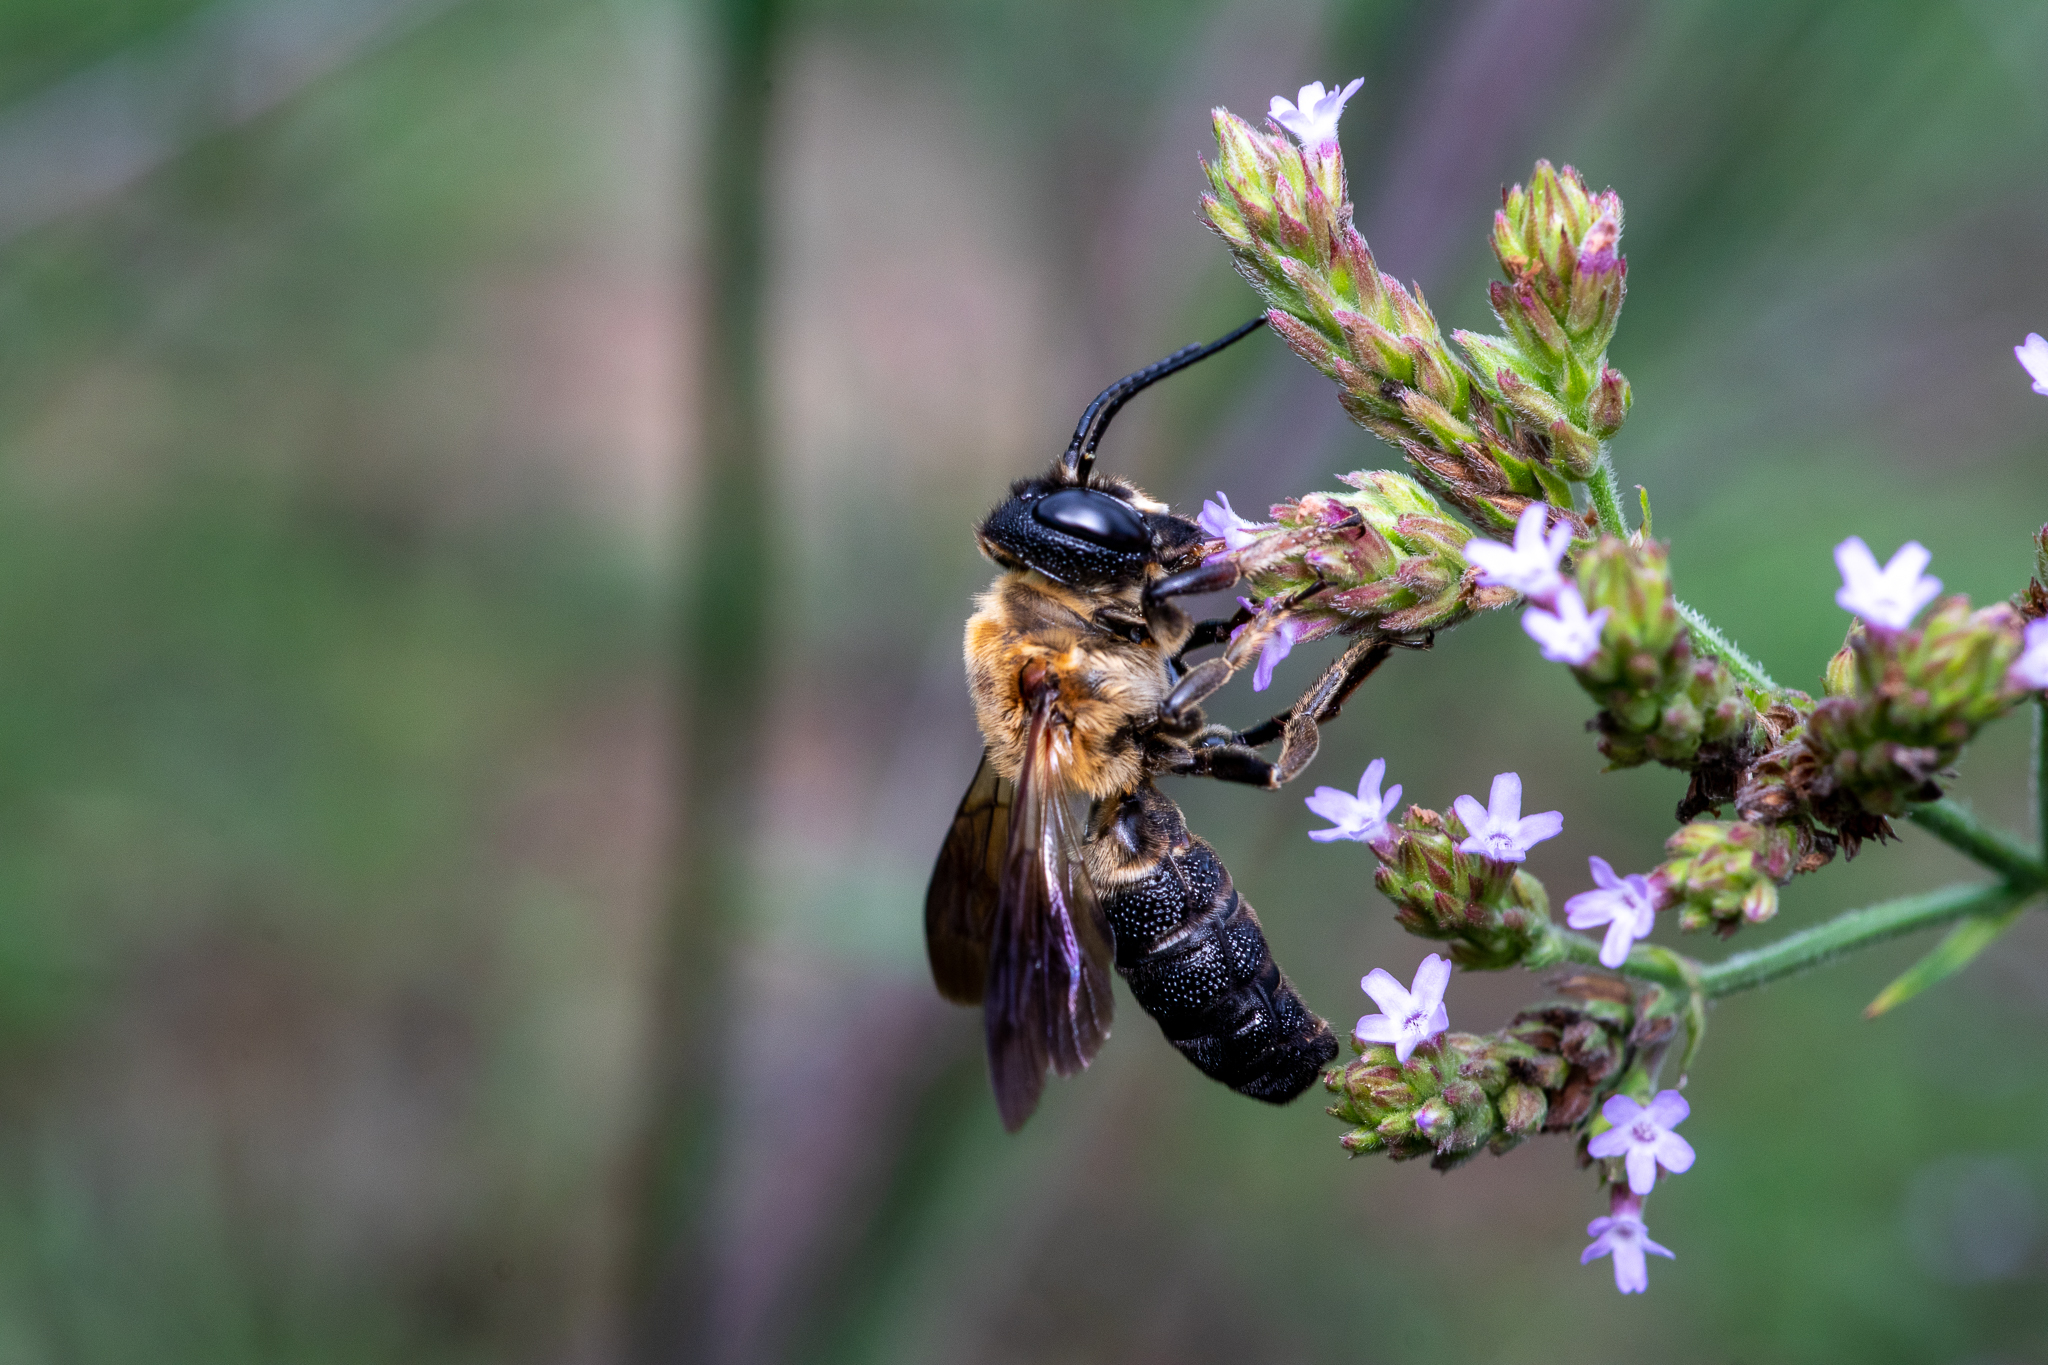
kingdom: Animalia
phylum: Arthropoda
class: Insecta
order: Hymenoptera
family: Megachilidae
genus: Megachile
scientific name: Megachile sculpturalis
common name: Sculptured resin bee
